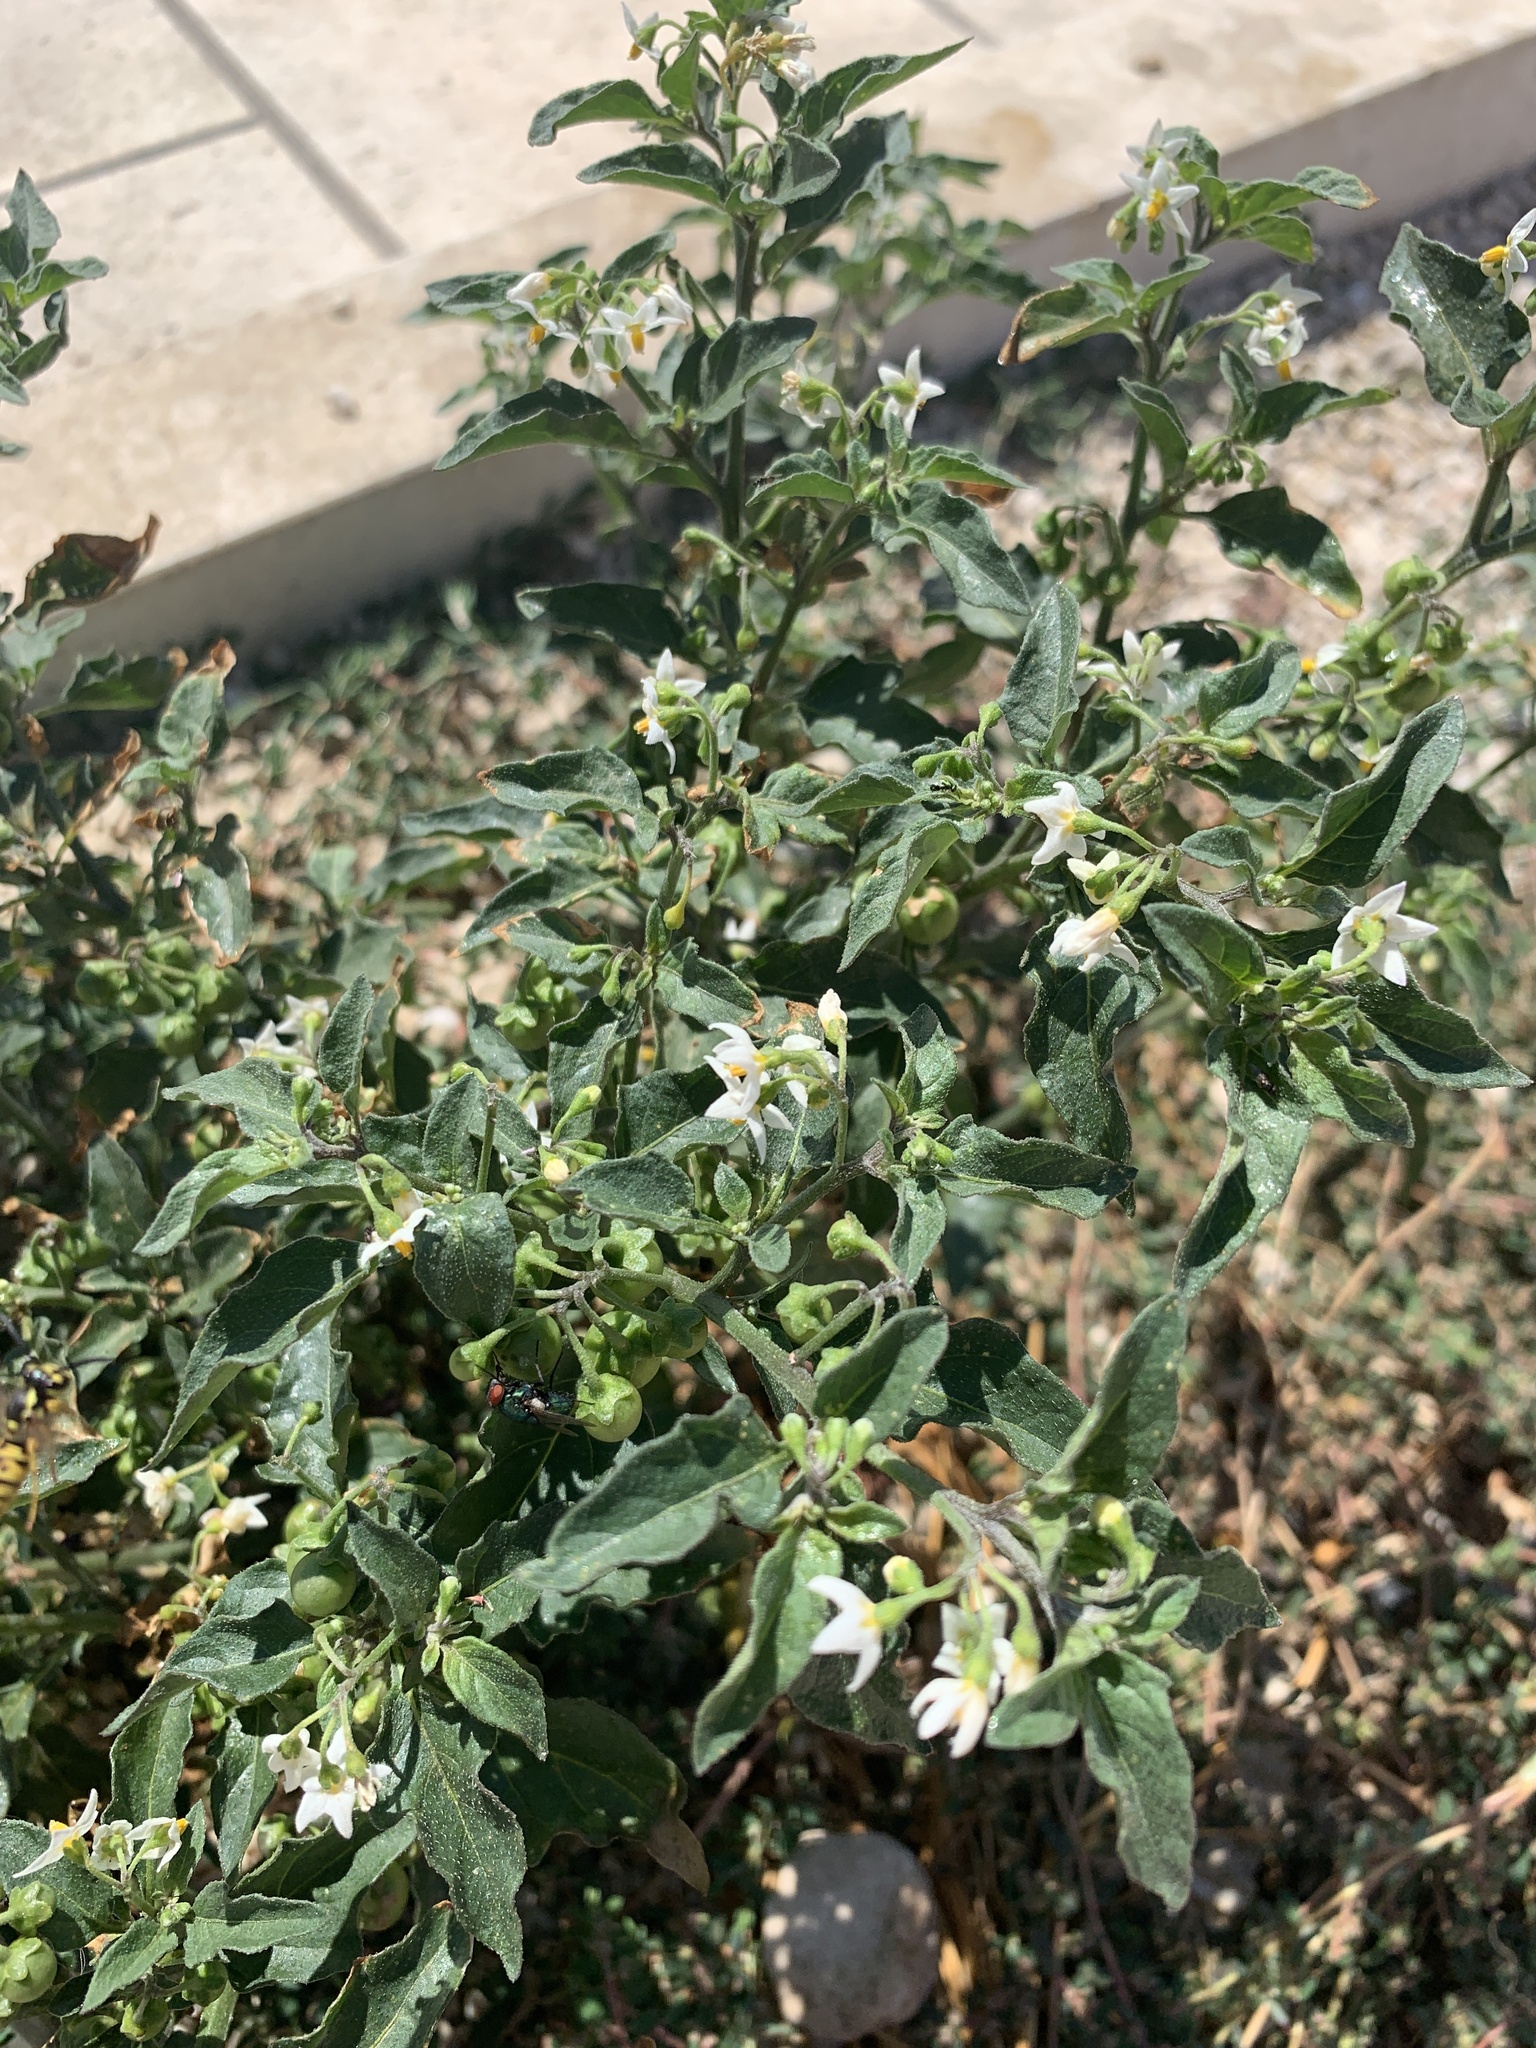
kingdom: Plantae
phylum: Tracheophyta
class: Magnoliopsida
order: Solanales
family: Solanaceae
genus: Solanum
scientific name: Solanum nigrum
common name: Black nightshade
